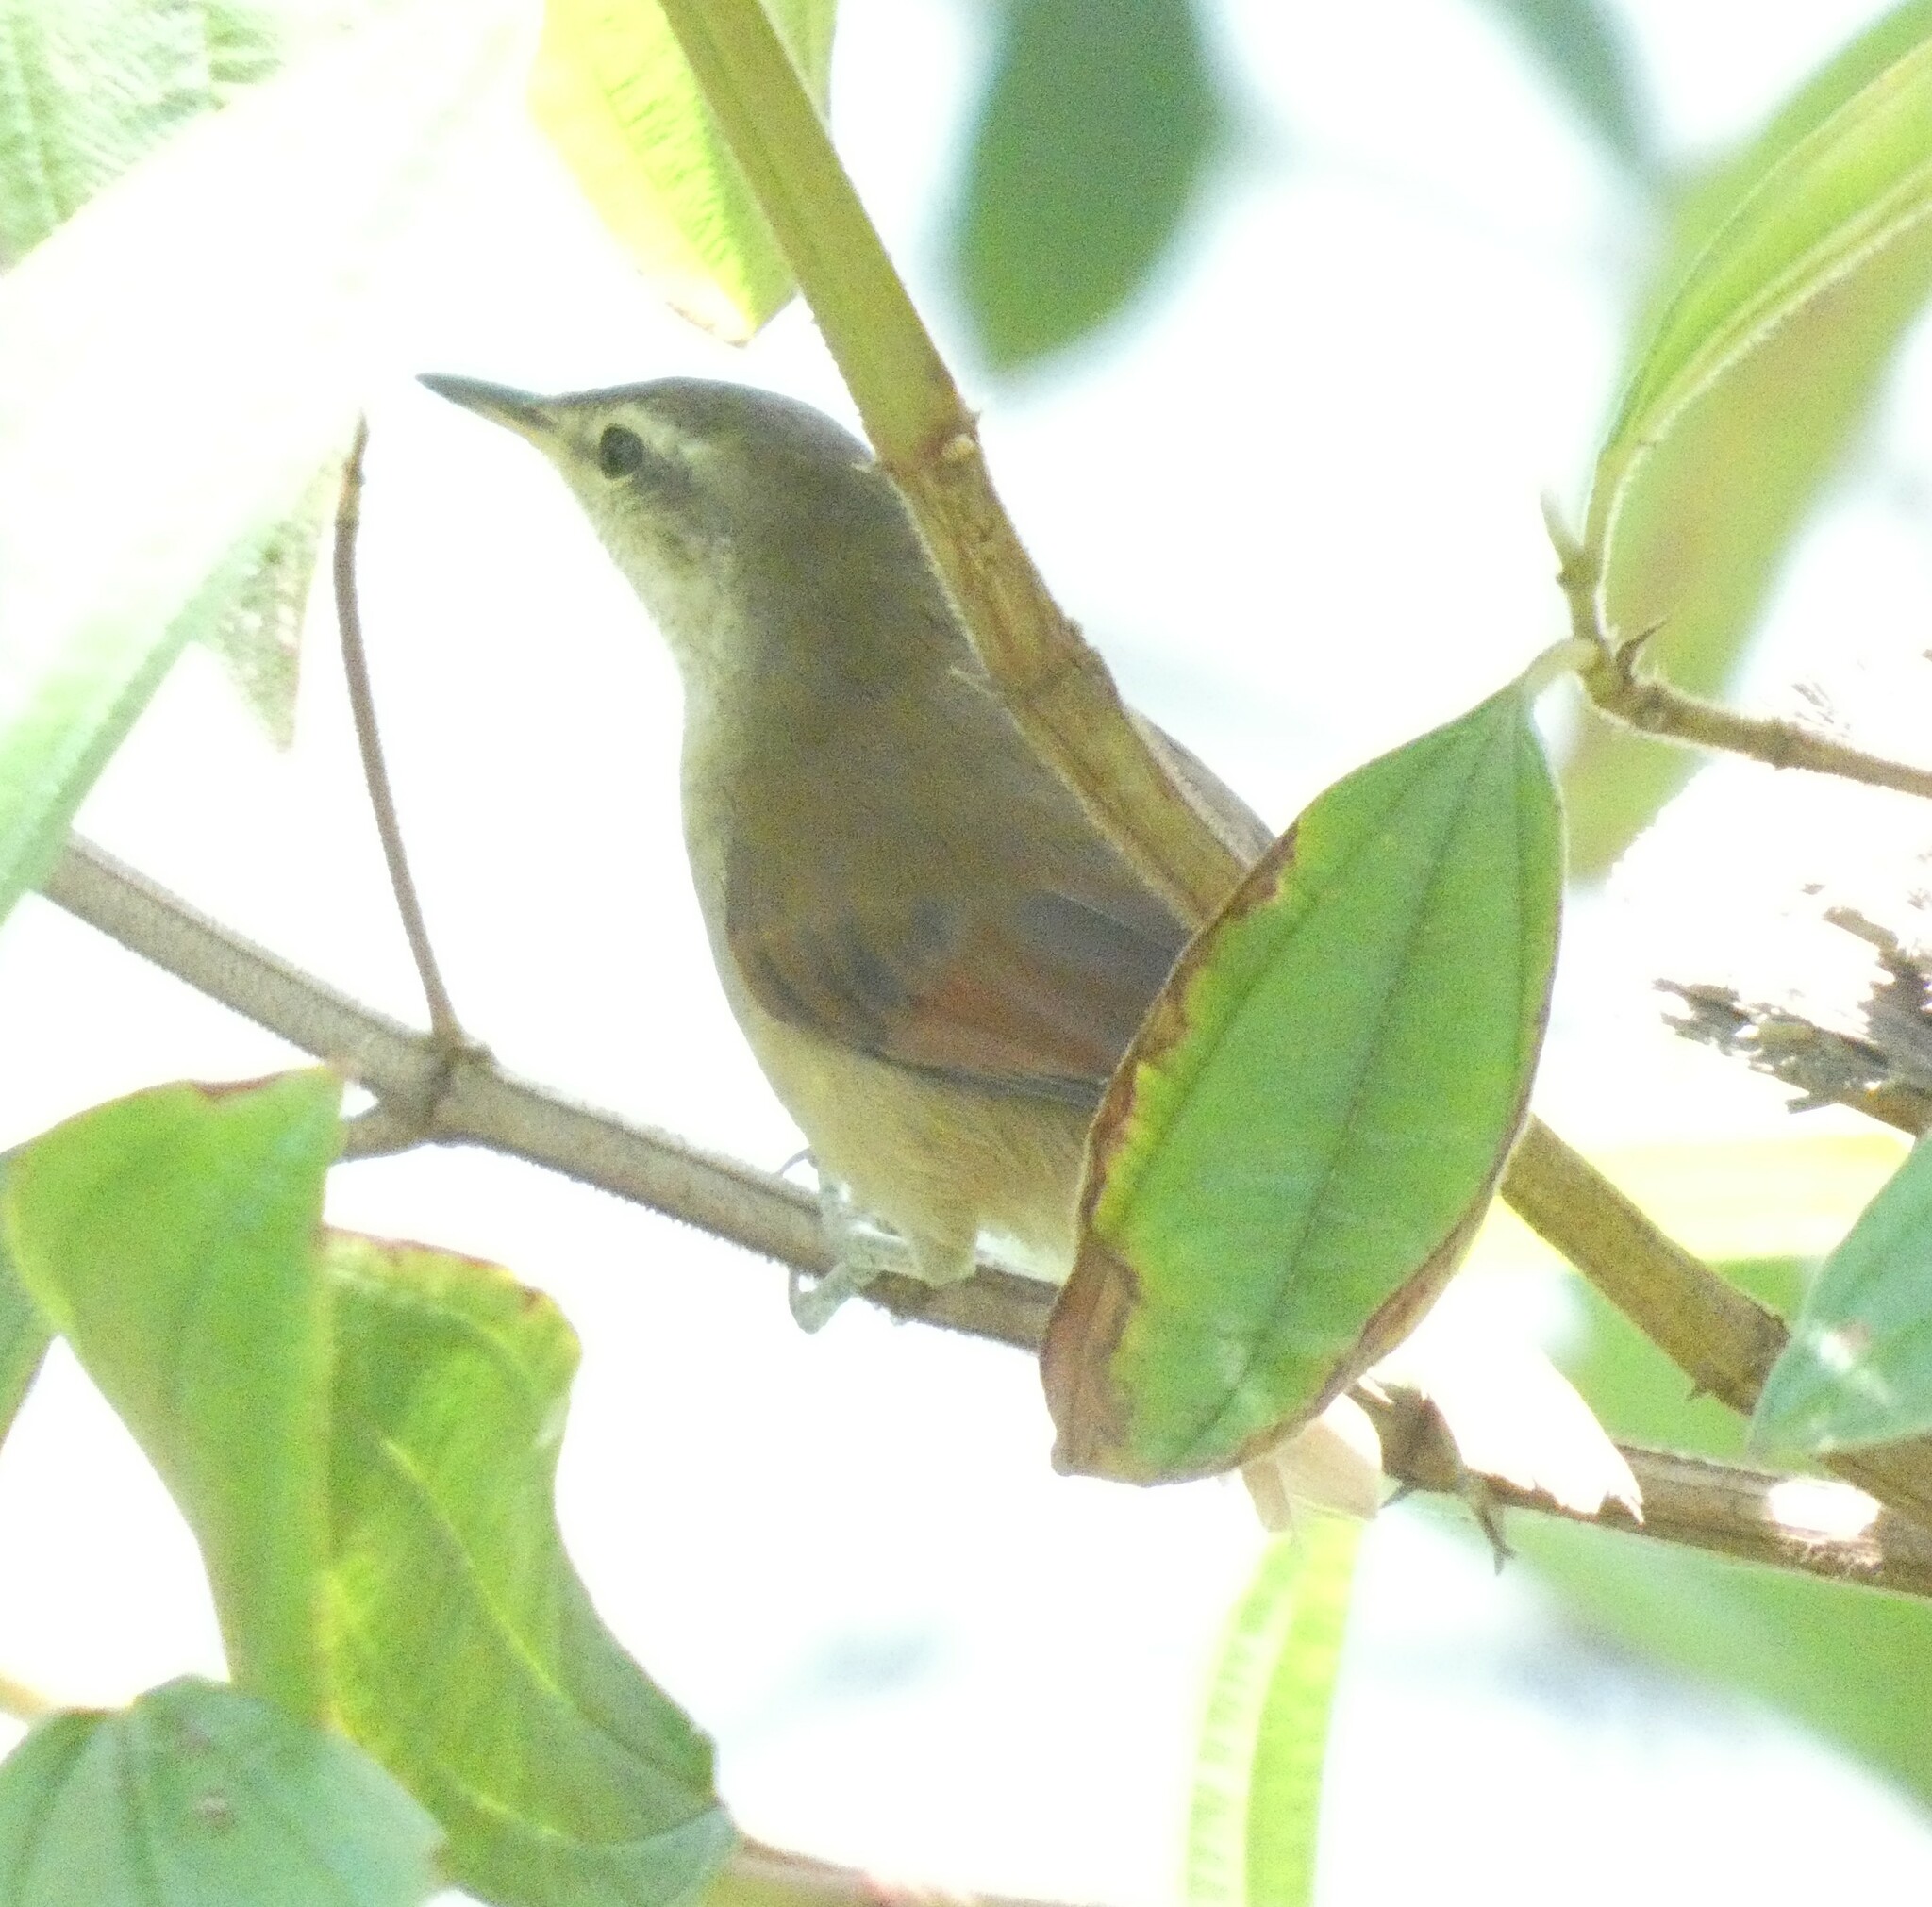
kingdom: Animalia
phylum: Chordata
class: Aves
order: Passeriformes
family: Furnariidae
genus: Certhiaxis
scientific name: Certhiaxis cinnamomeus
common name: Yellow-chinned spinetail
